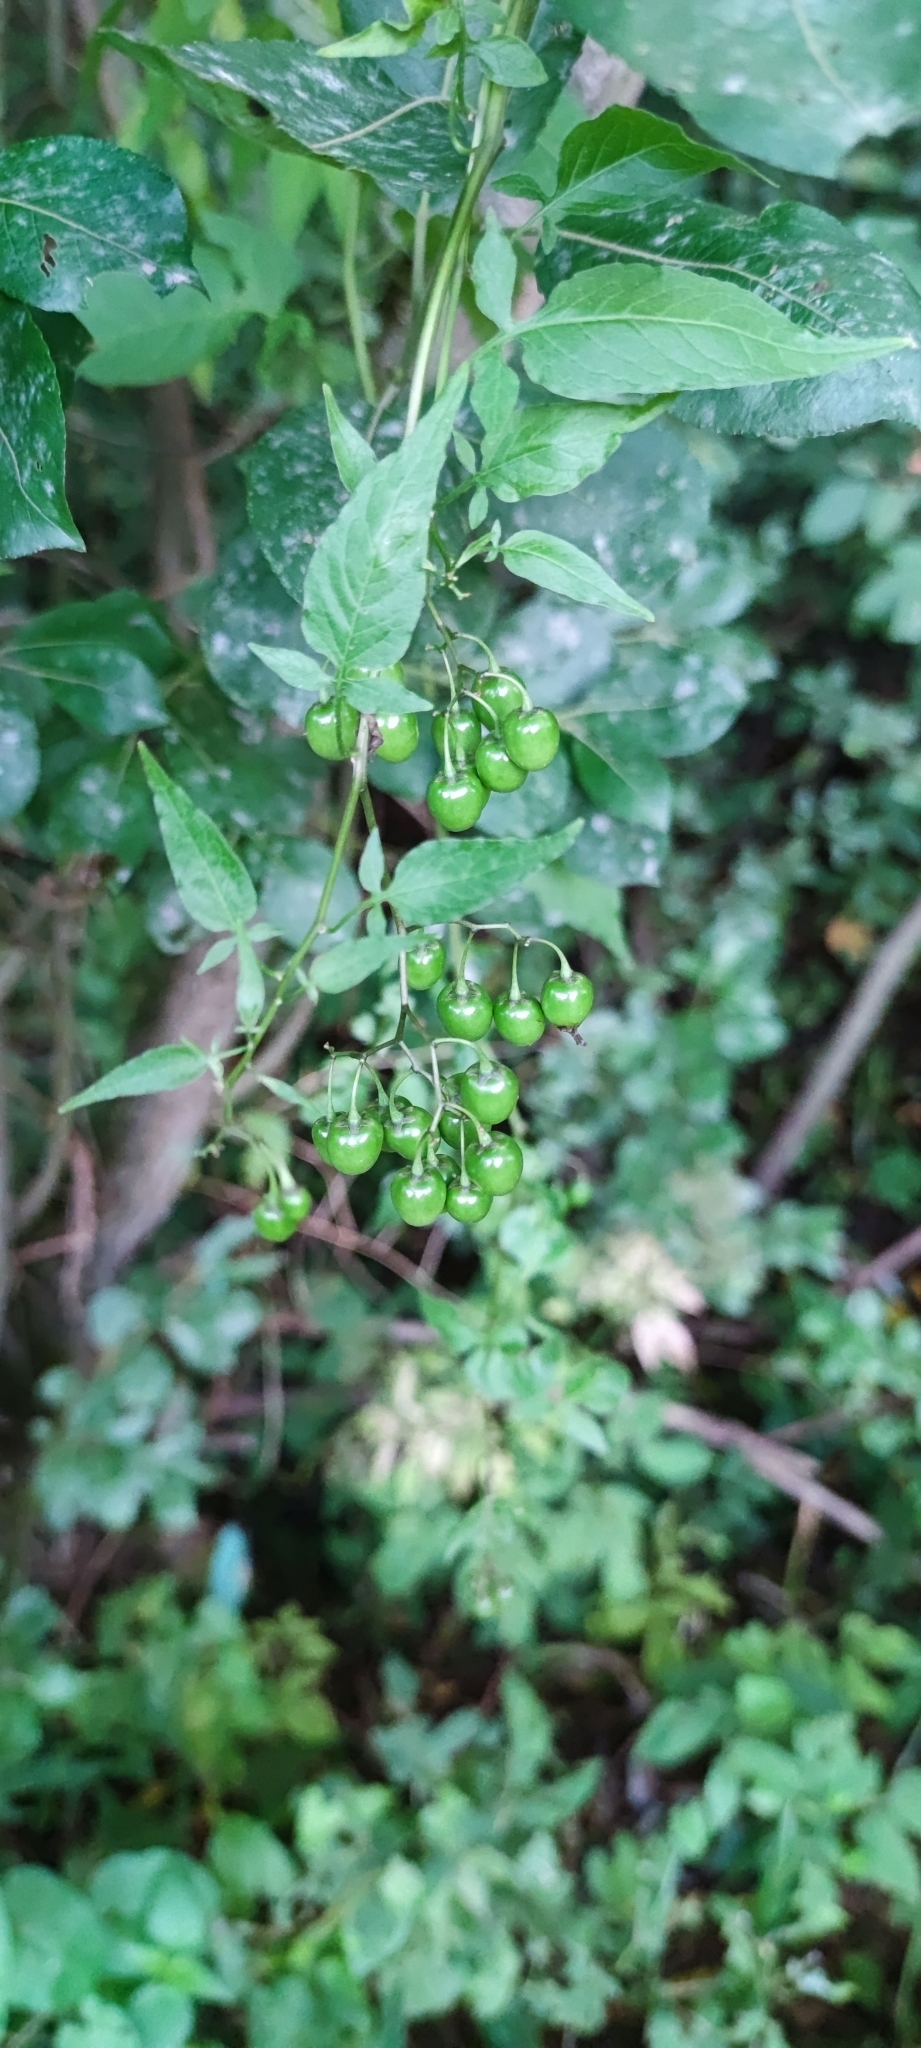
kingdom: Plantae
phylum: Tracheophyta
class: Magnoliopsida
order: Solanales
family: Solanaceae
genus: Solanum
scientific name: Solanum dulcamara
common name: Climbing nightshade
